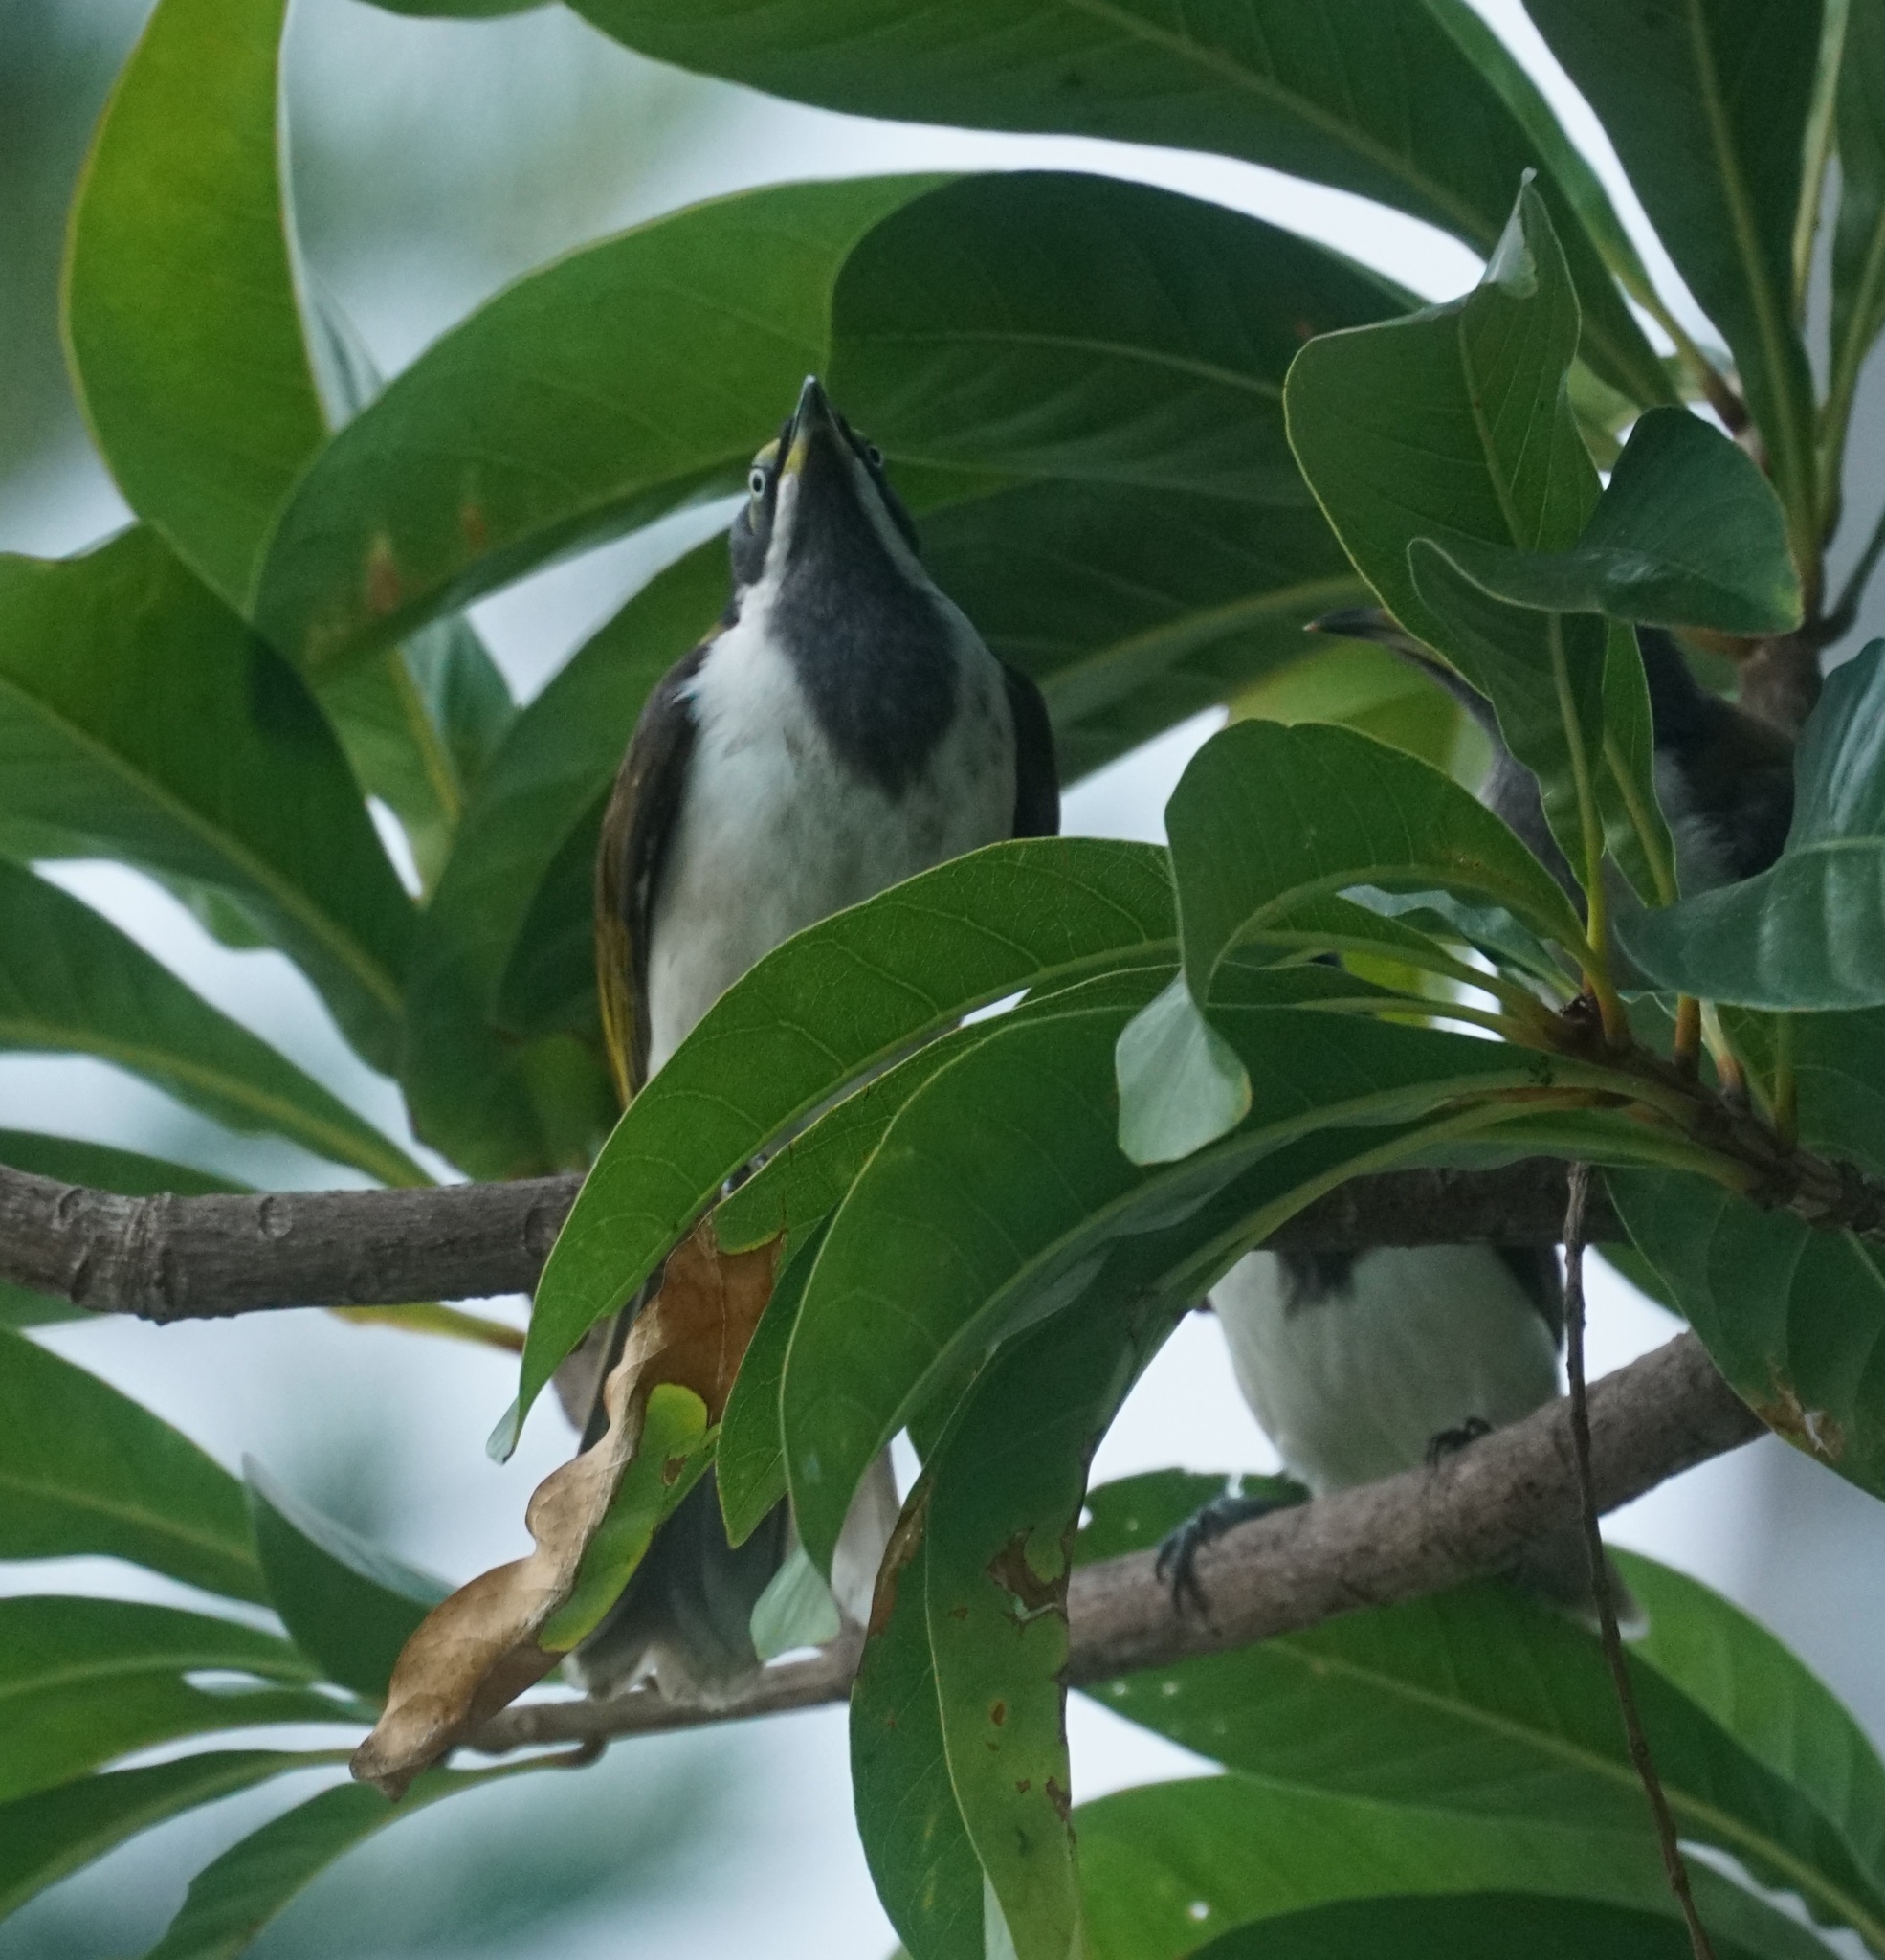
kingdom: Animalia
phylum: Chordata
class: Aves
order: Passeriformes
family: Meliphagidae
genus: Entomyzon
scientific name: Entomyzon cyanotis
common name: Blue-faced honeyeater
